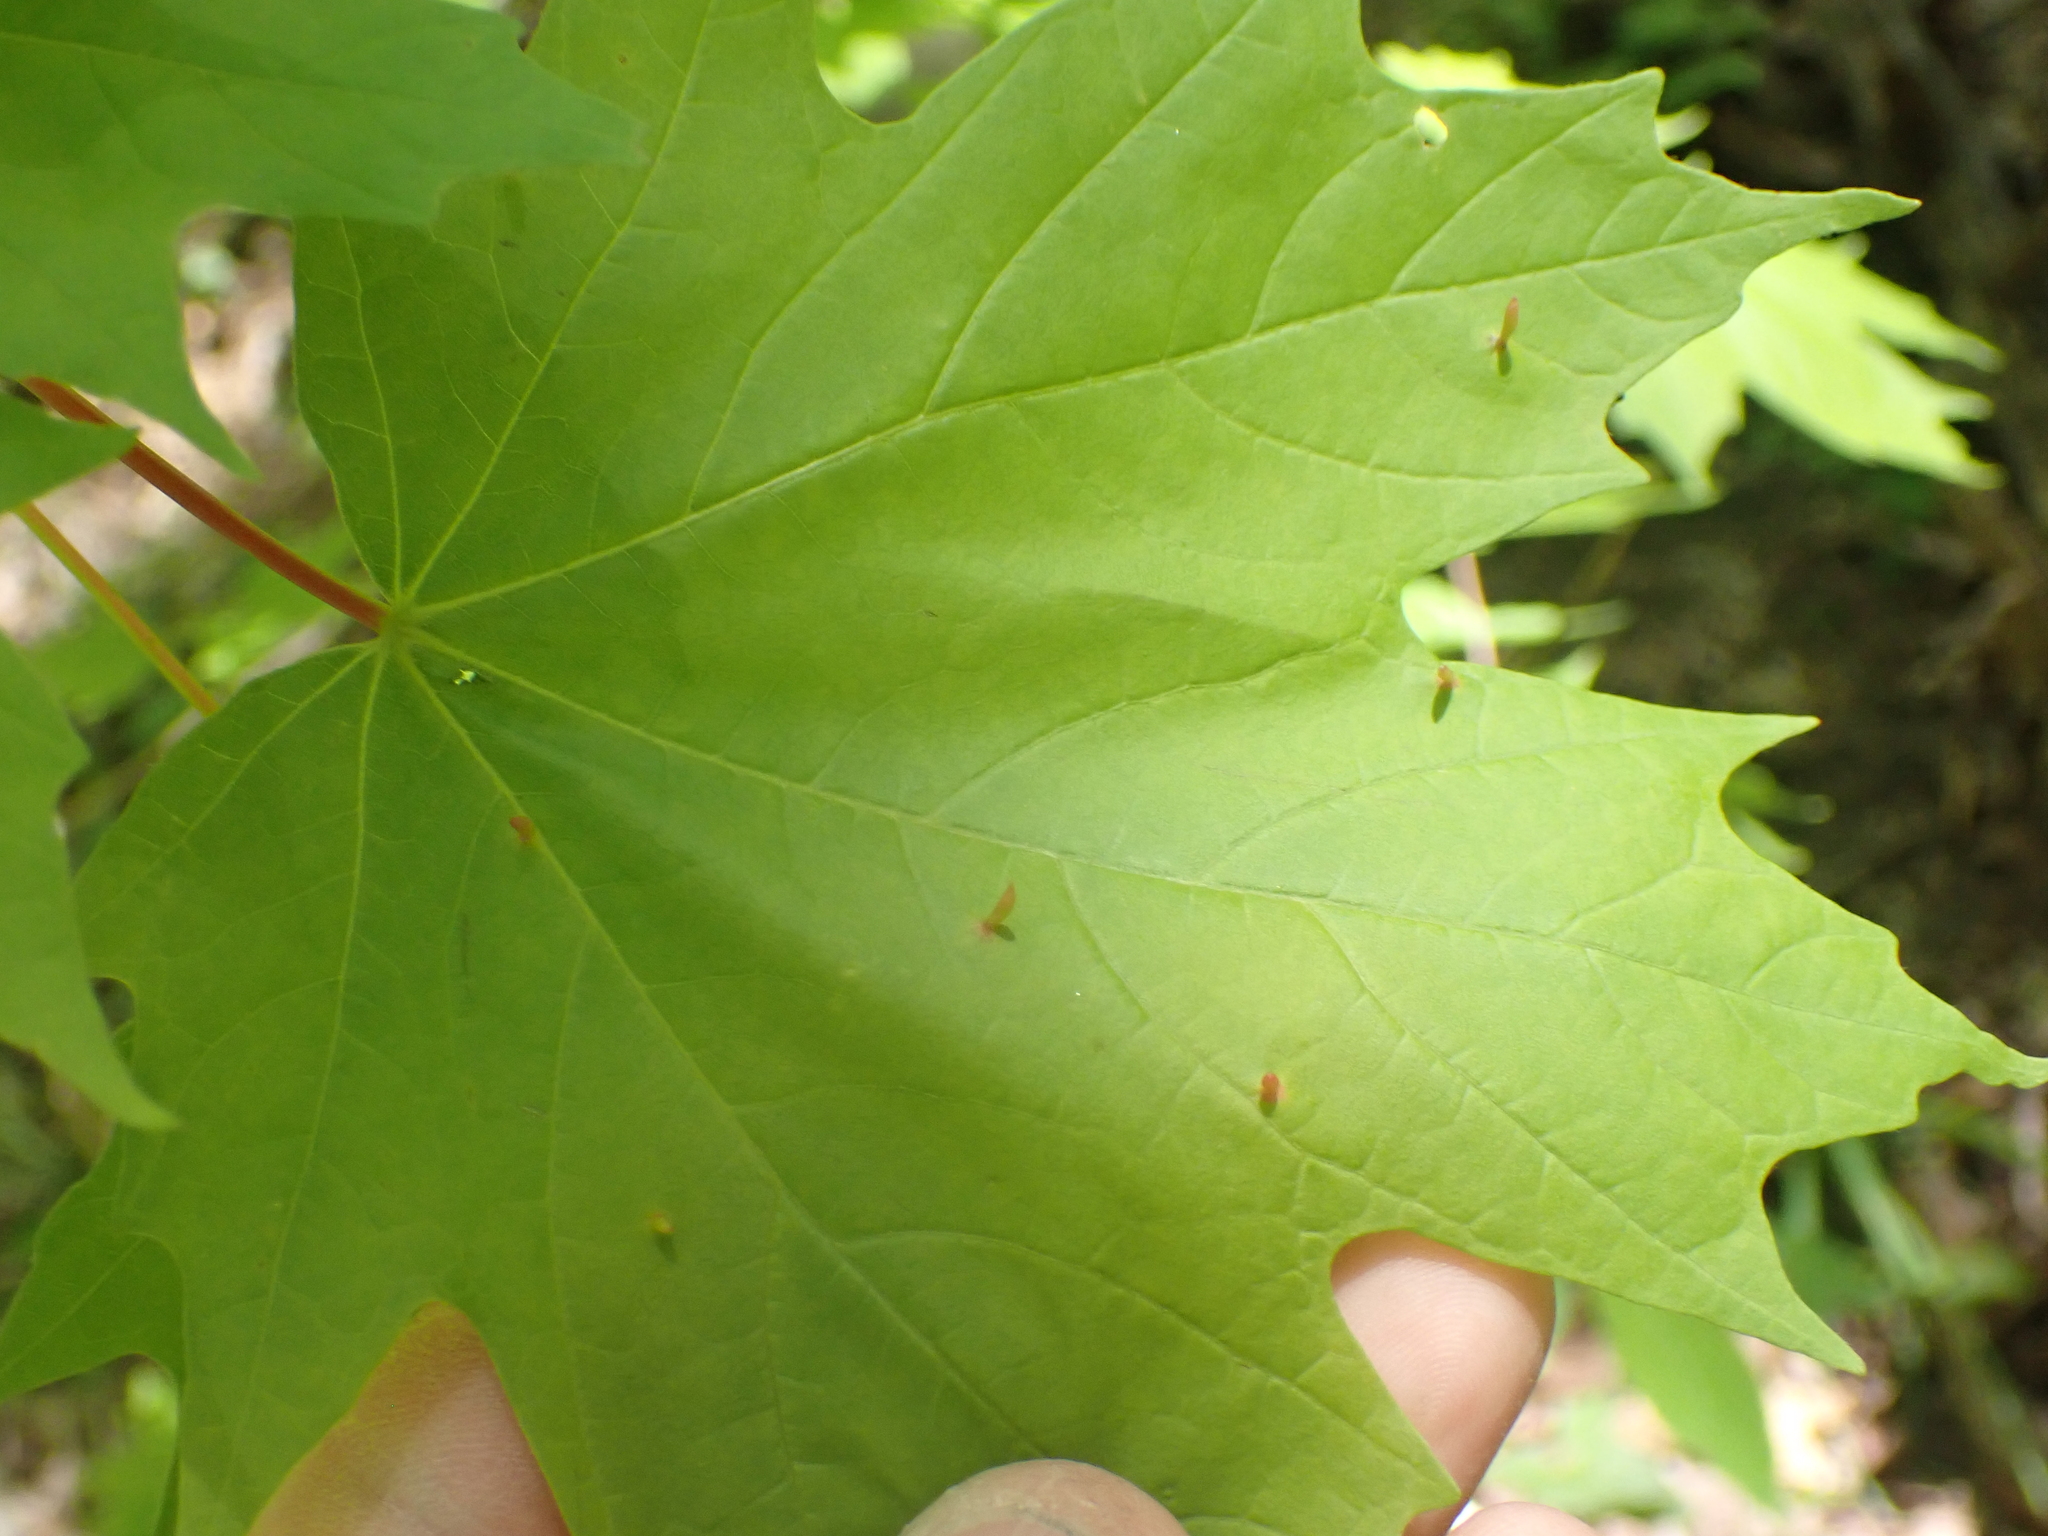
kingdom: Animalia
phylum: Arthropoda
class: Arachnida
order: Trombidiformes
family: Eriophyidae
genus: Vasates
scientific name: Vasates aceriscrumena
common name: Maple spindle gall mite
